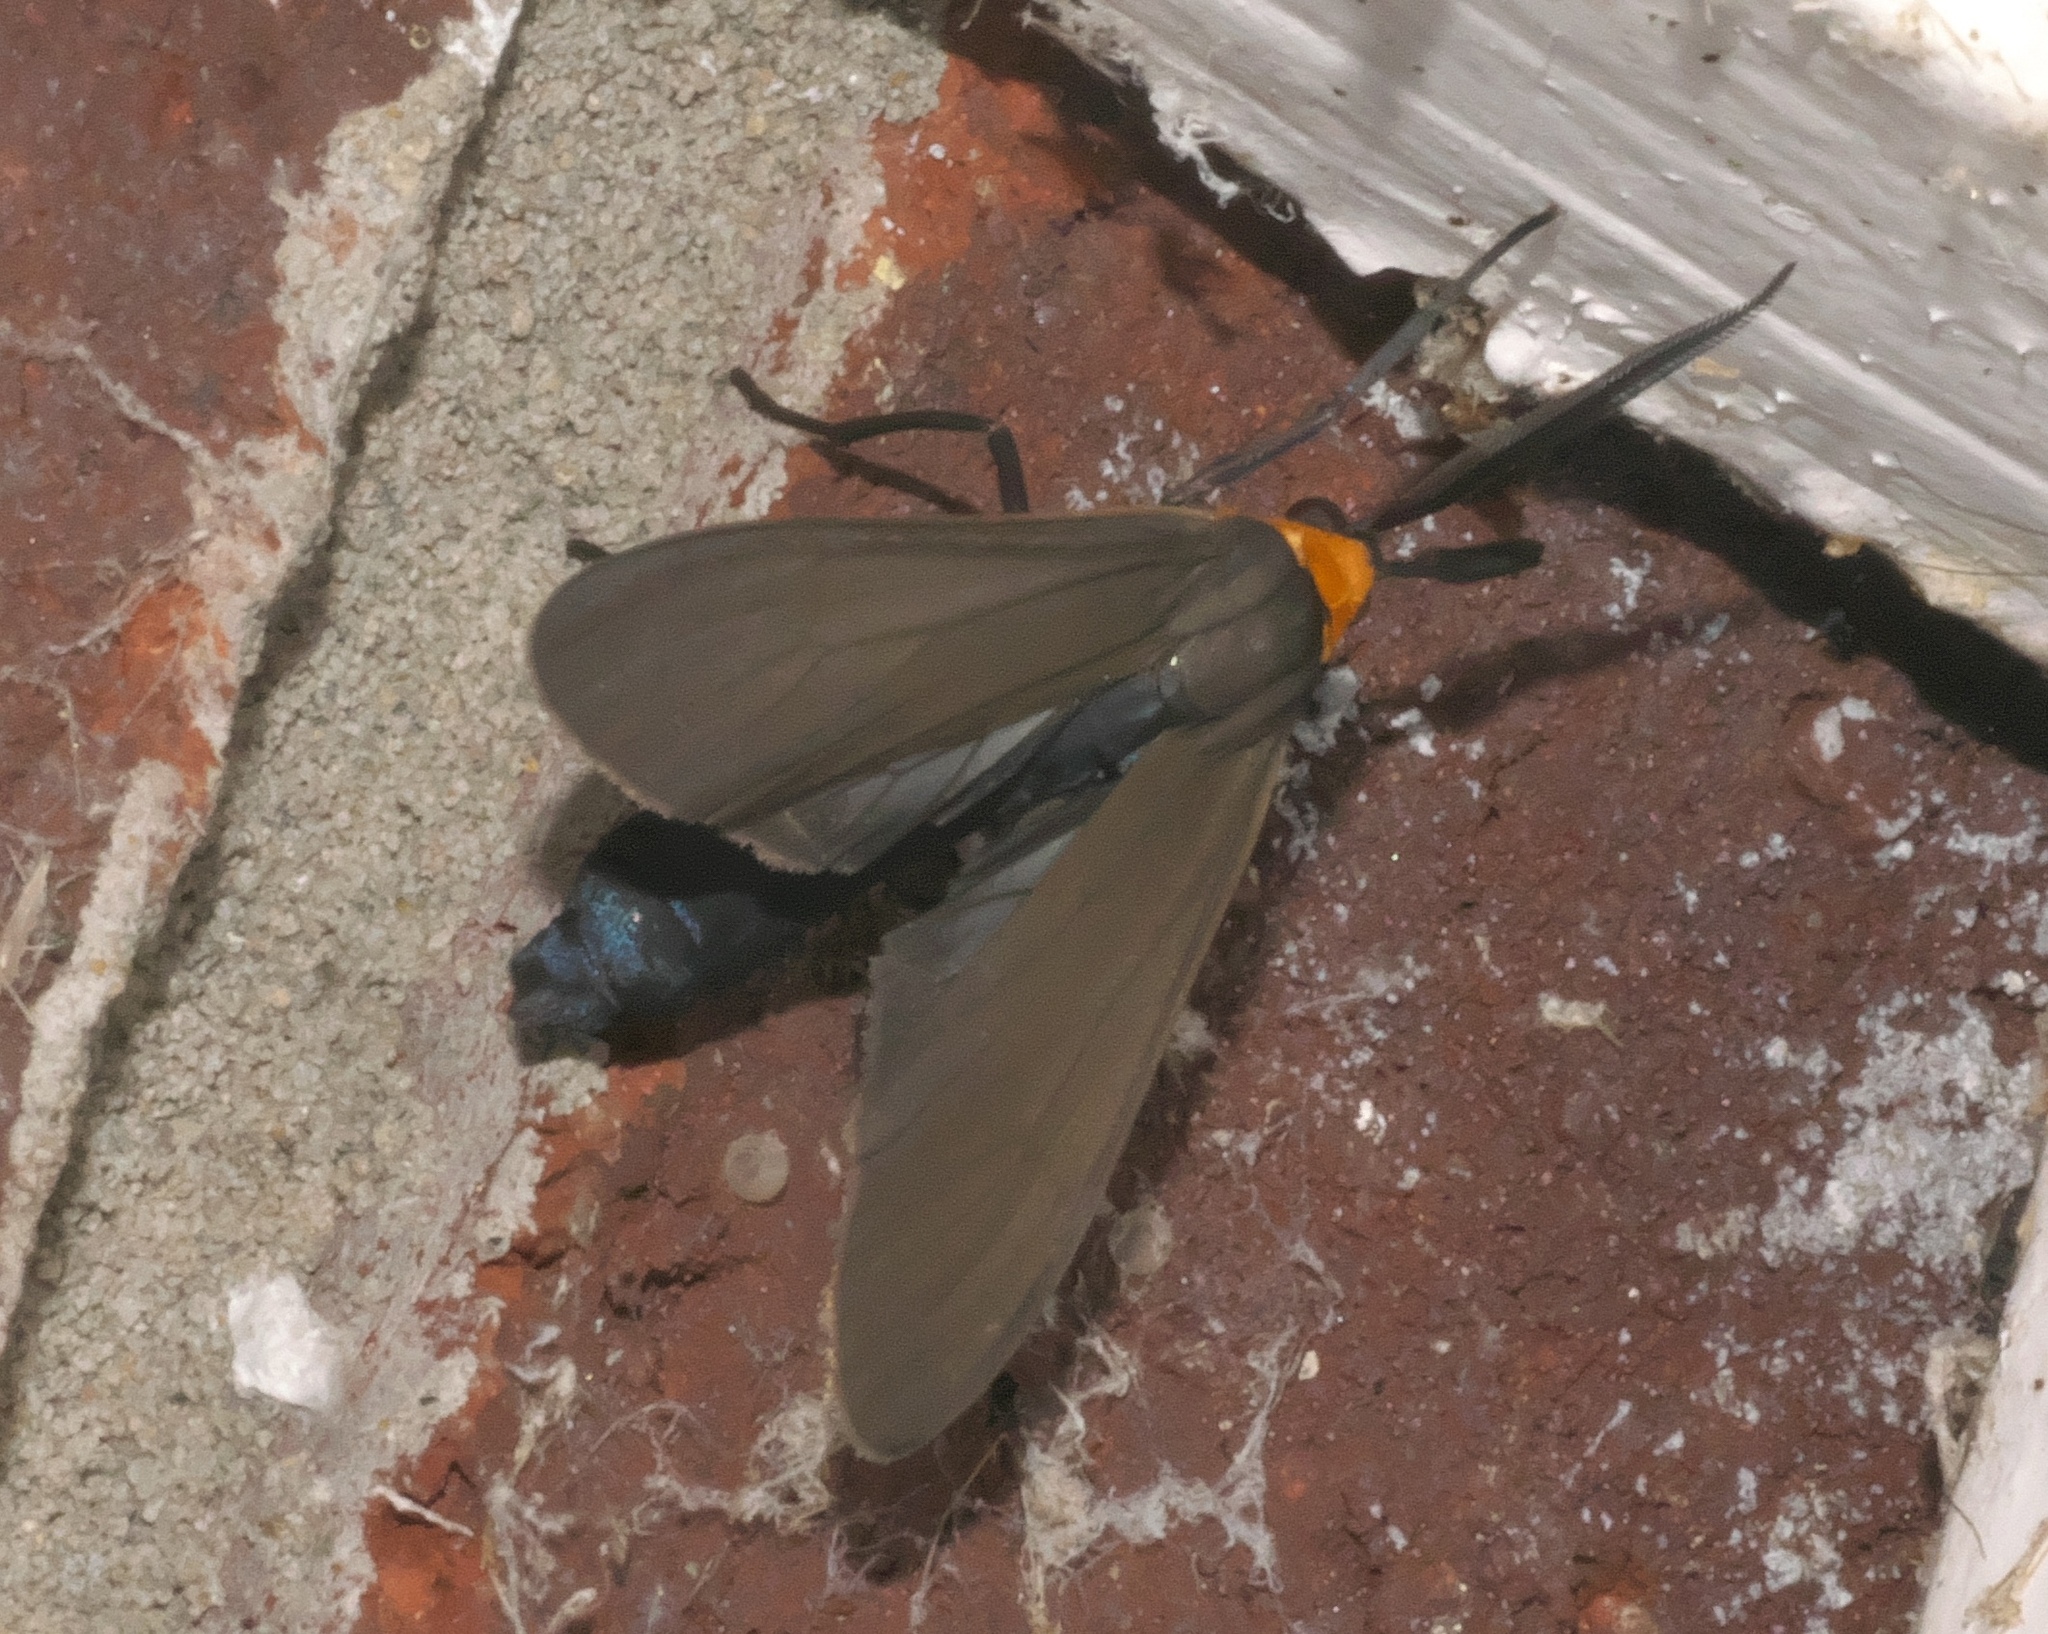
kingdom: Animalia
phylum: Arthropoda
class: Insecta
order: Lepidoptera
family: Erebidae
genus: Cisseps
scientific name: Cisseps fulvicollis
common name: Yellow-collared scape moth
